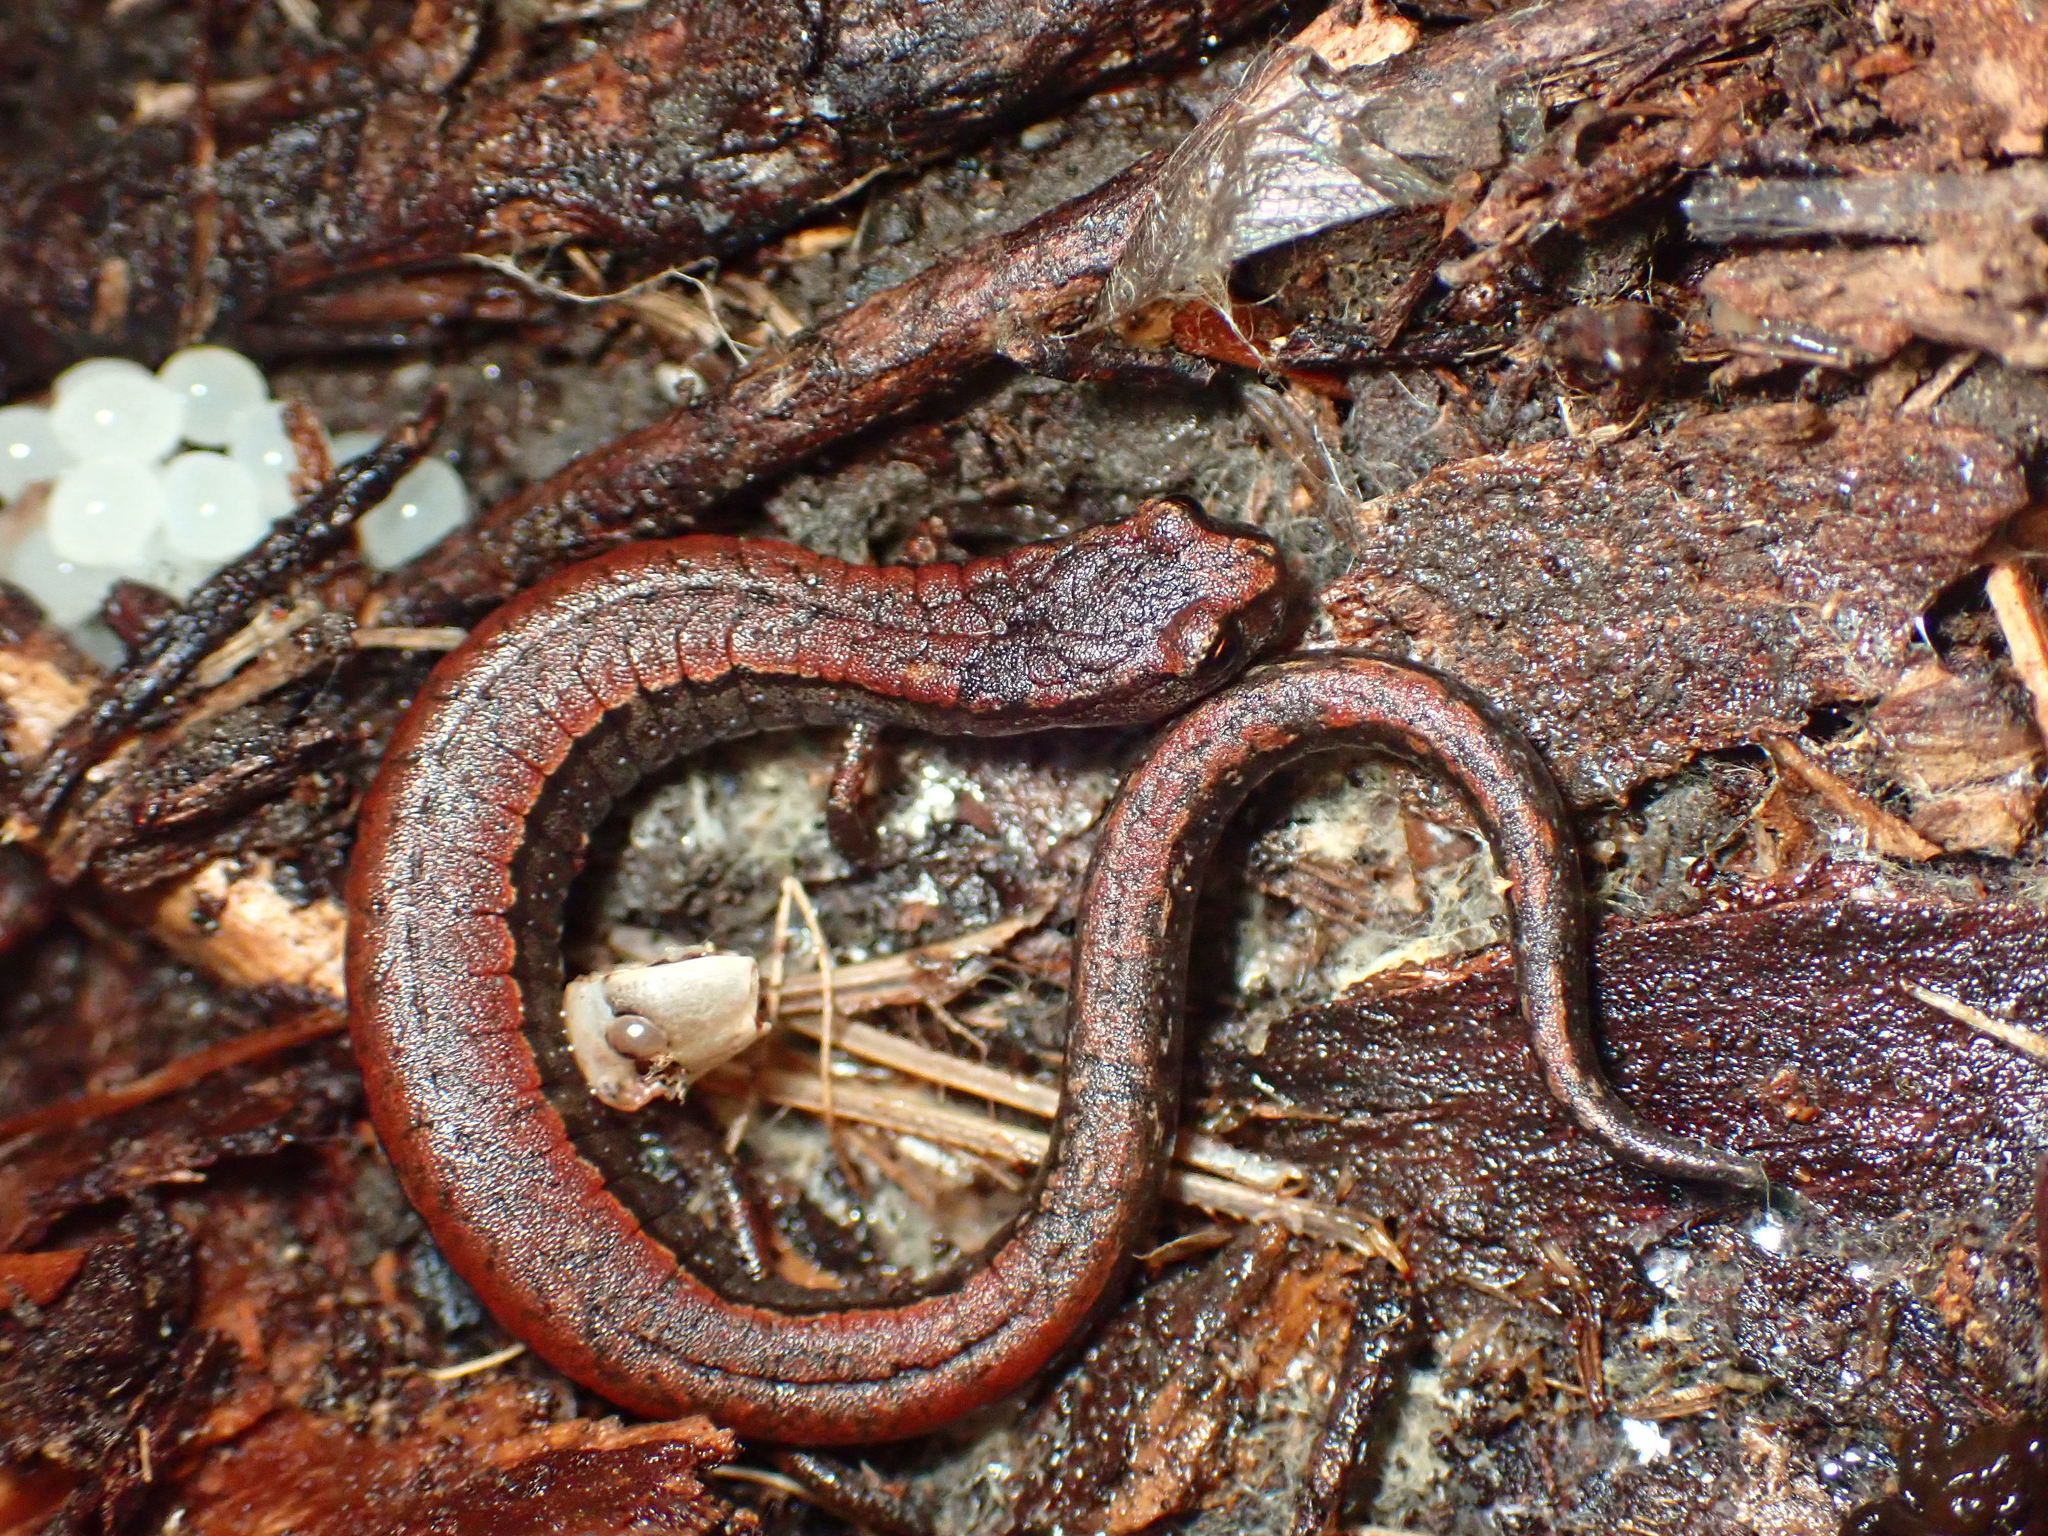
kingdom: Animalia
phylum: Chordata
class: Amphibia
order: Caudata
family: Plethodontidae
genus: Batrachoseps
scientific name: Batrachoseps attenuatus
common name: California slender salamander
